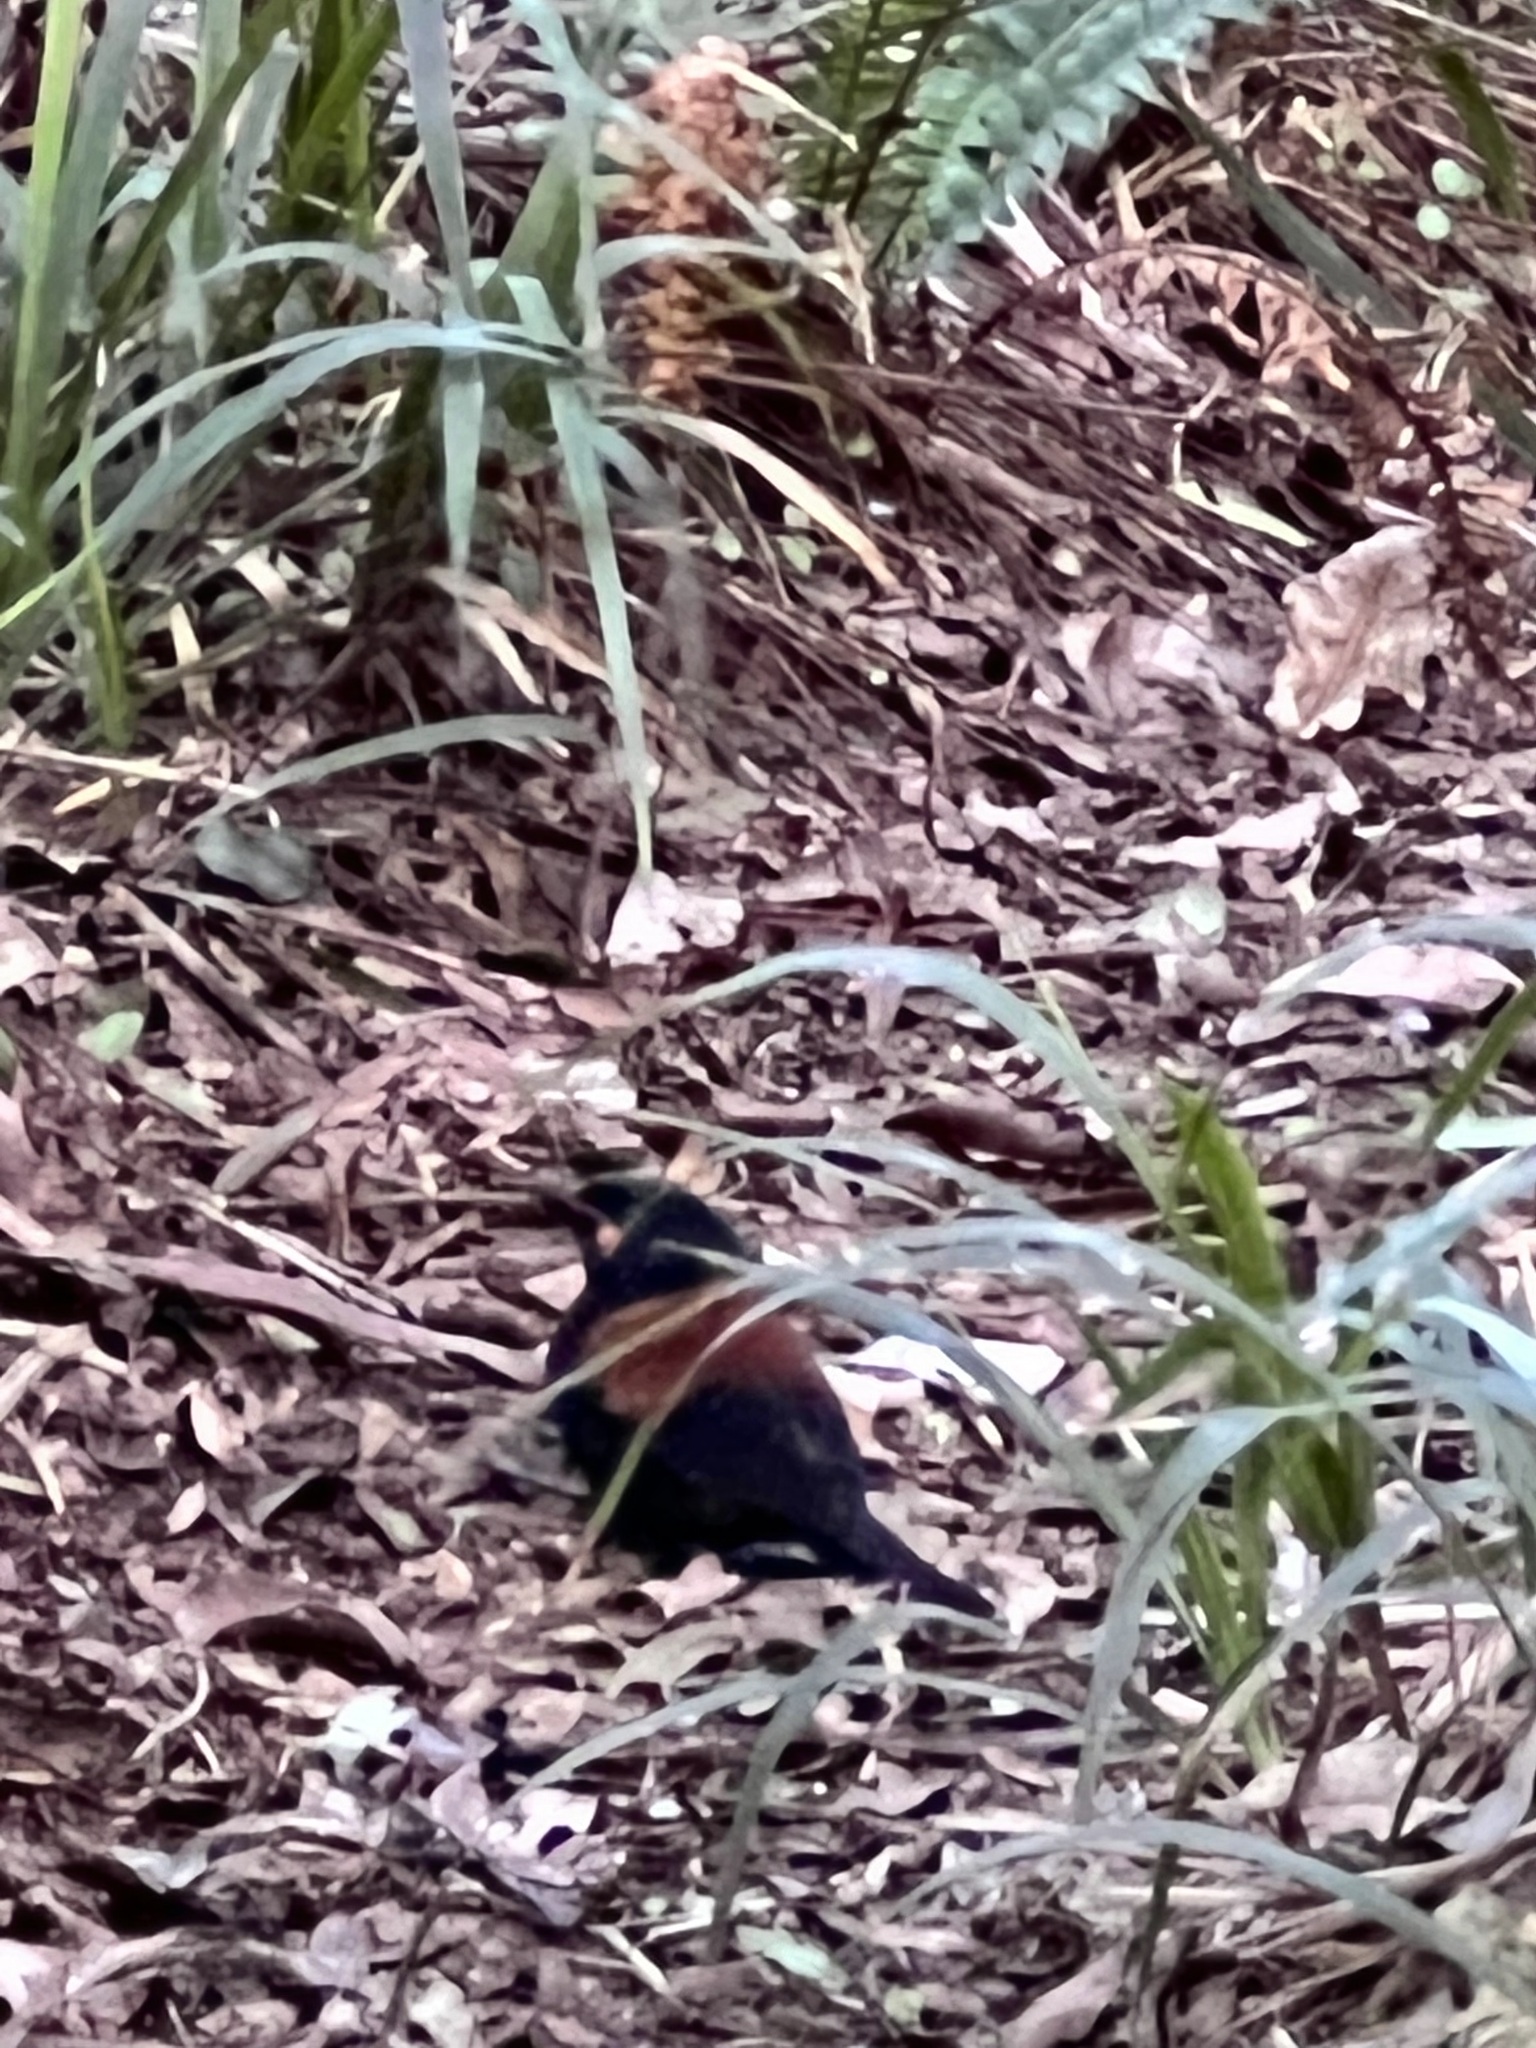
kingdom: Animalia
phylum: Chordata
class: Aves
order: Passeriformes
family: Callaeatidae
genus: Philesturnus
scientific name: Philesturnus carunculatus
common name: South island saddleback
